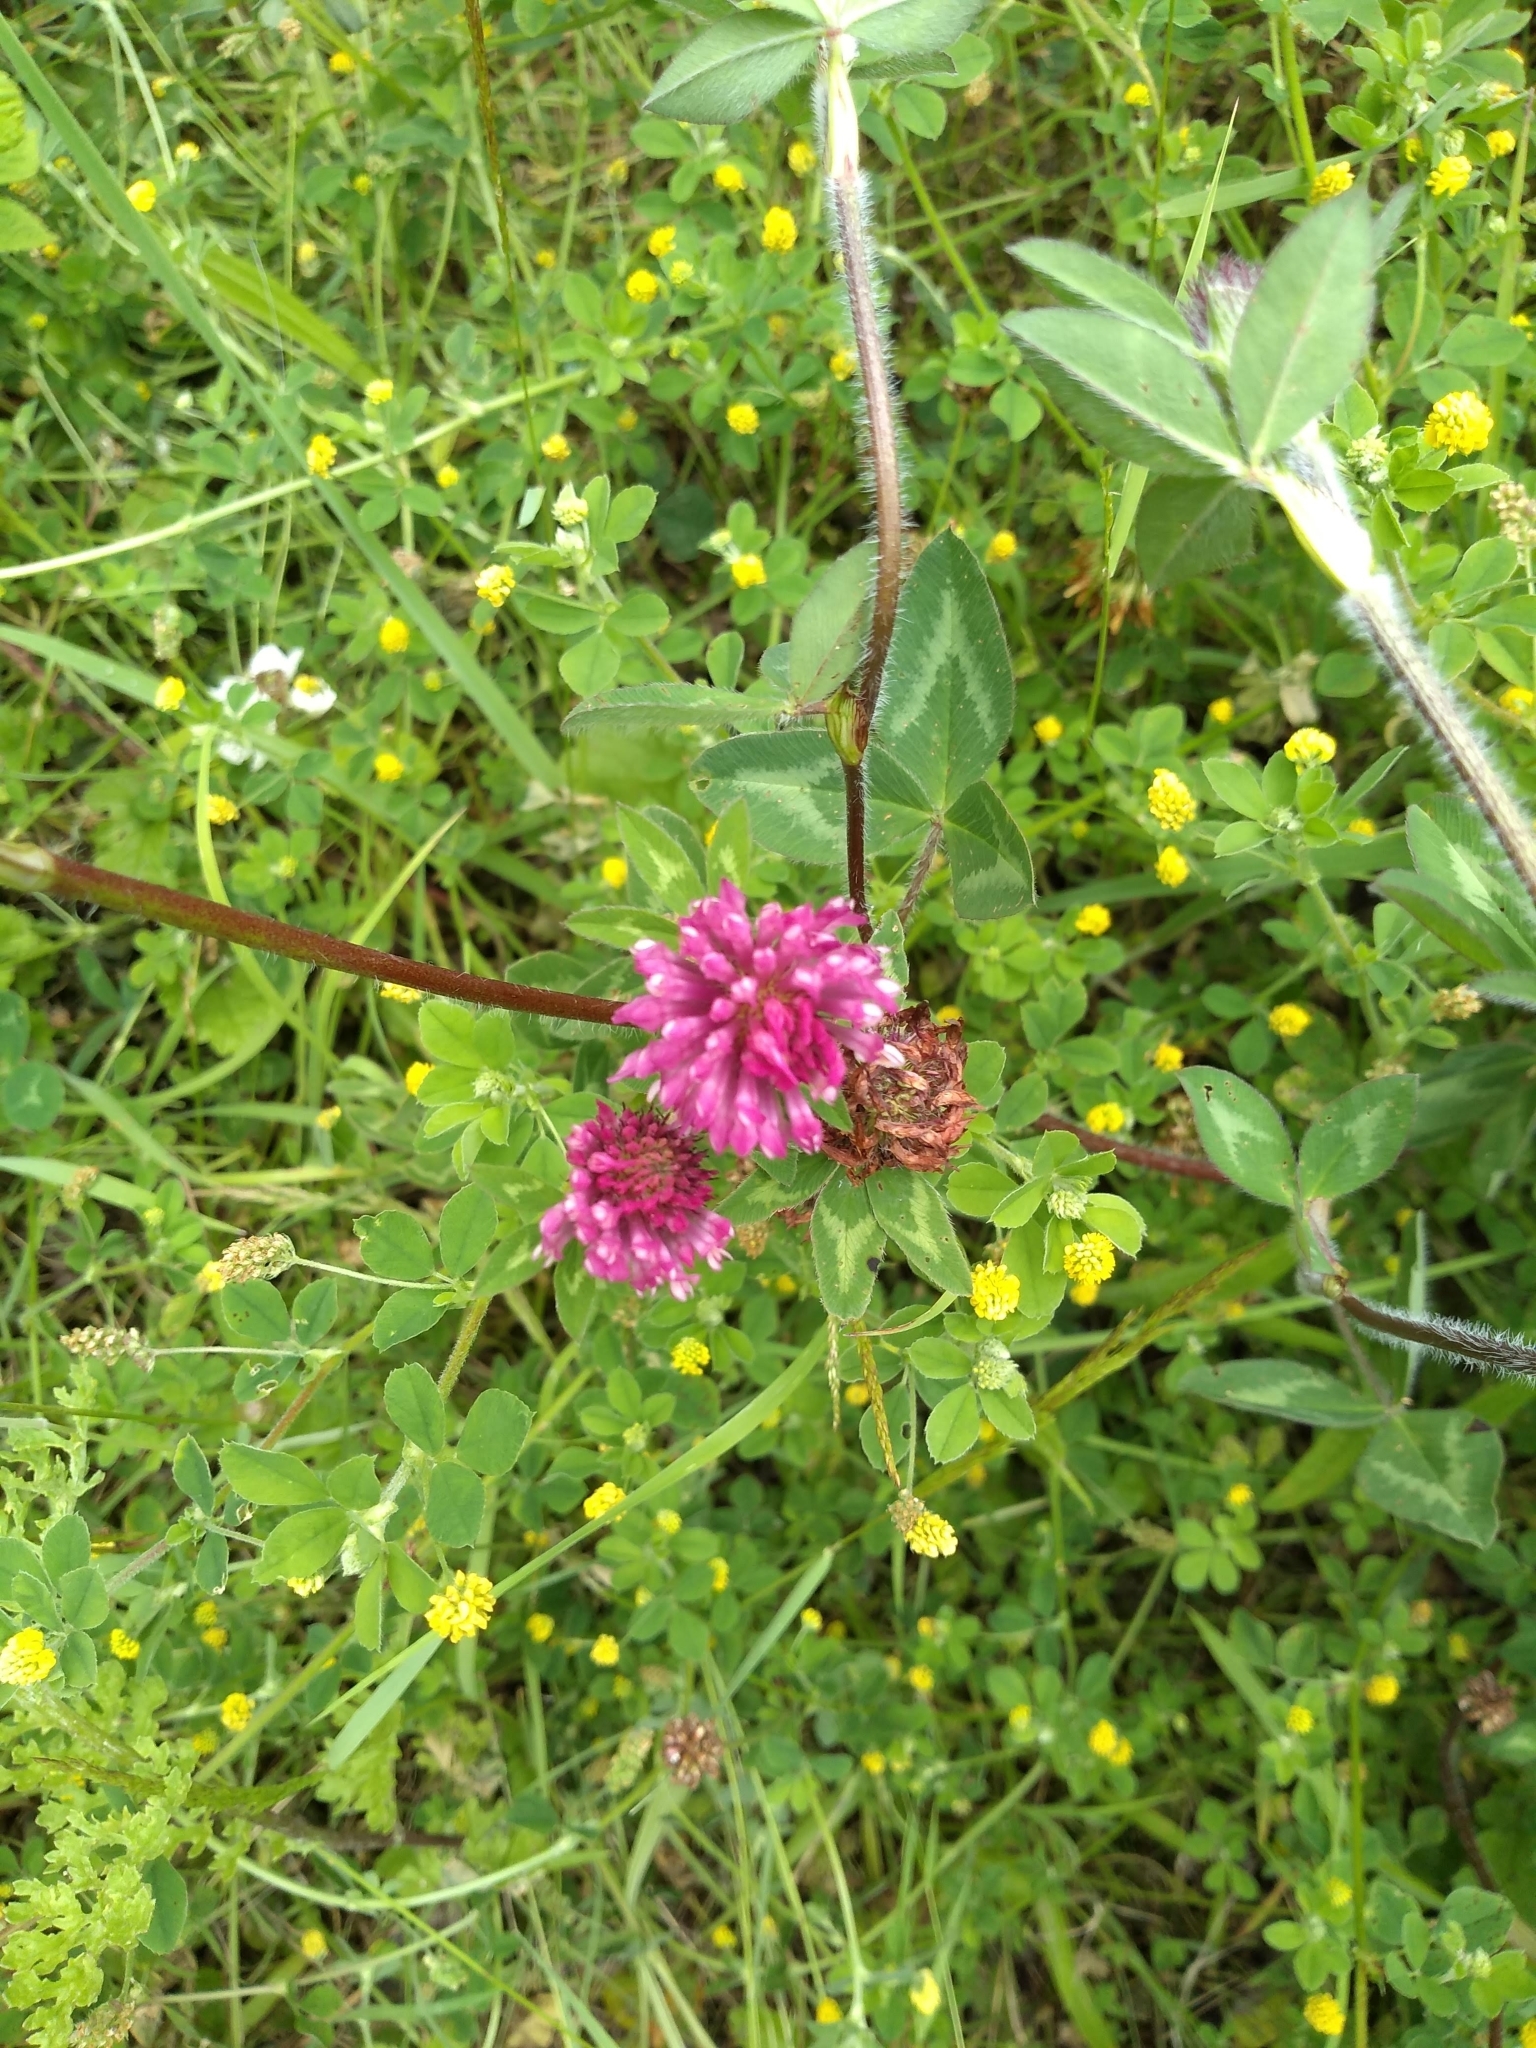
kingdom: Plantae
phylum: Tracheophyta
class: Magnoliopsida
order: Fabales
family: Fabaceae
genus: Trifolium
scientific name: Trifolium pratense
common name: Red clover
